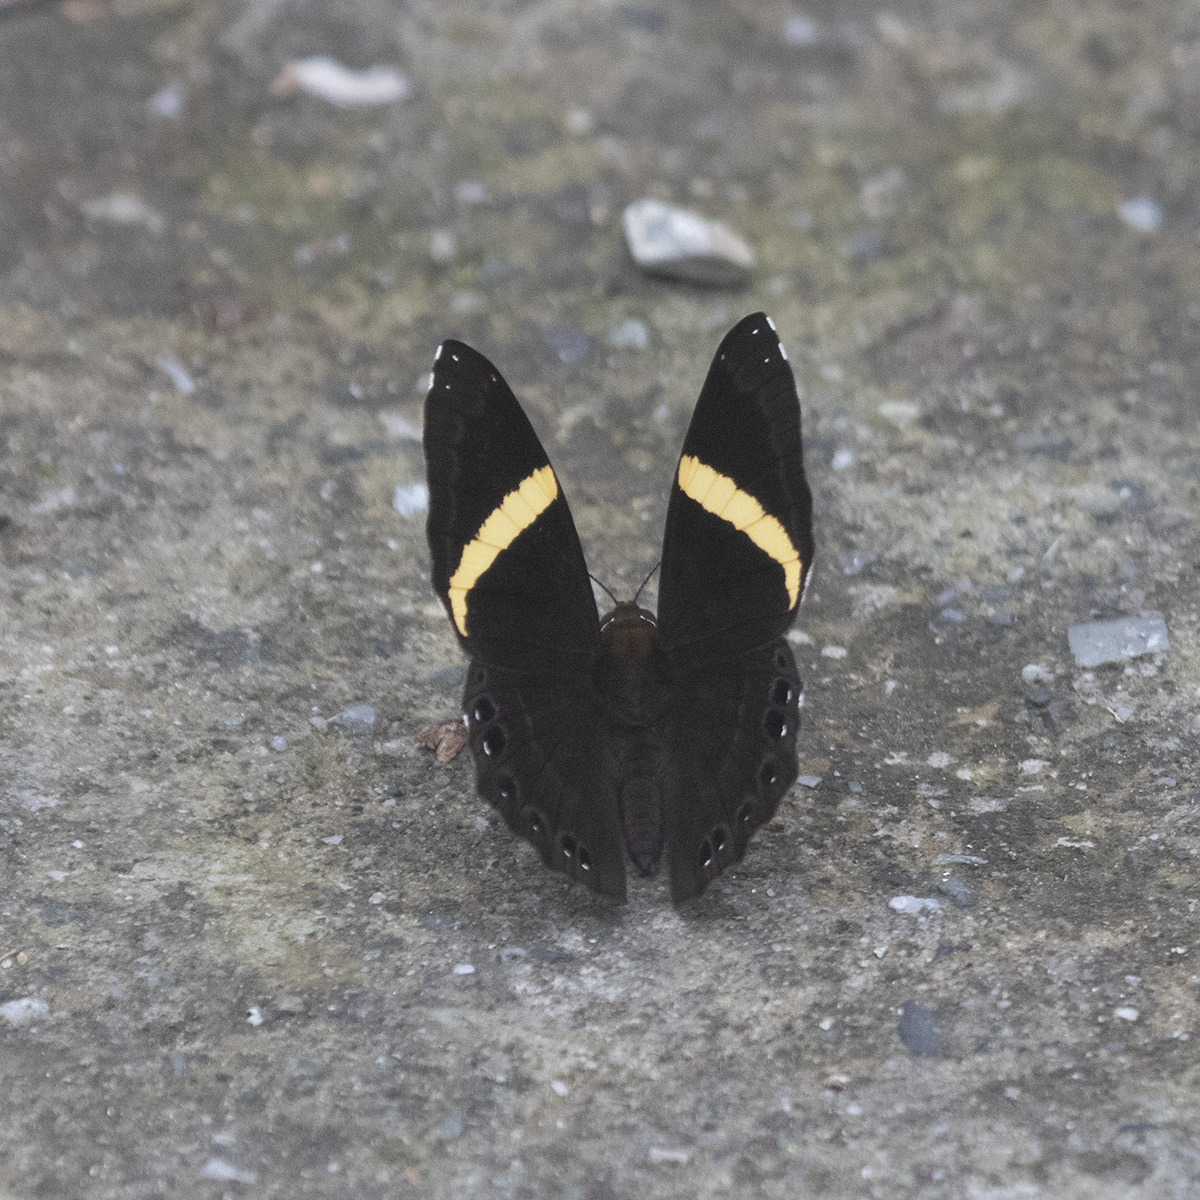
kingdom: Animalia
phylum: Arthropoda
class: Insecta
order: Lepidoptera
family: Lycaenidae
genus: Abisara
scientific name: Abisara fylla
